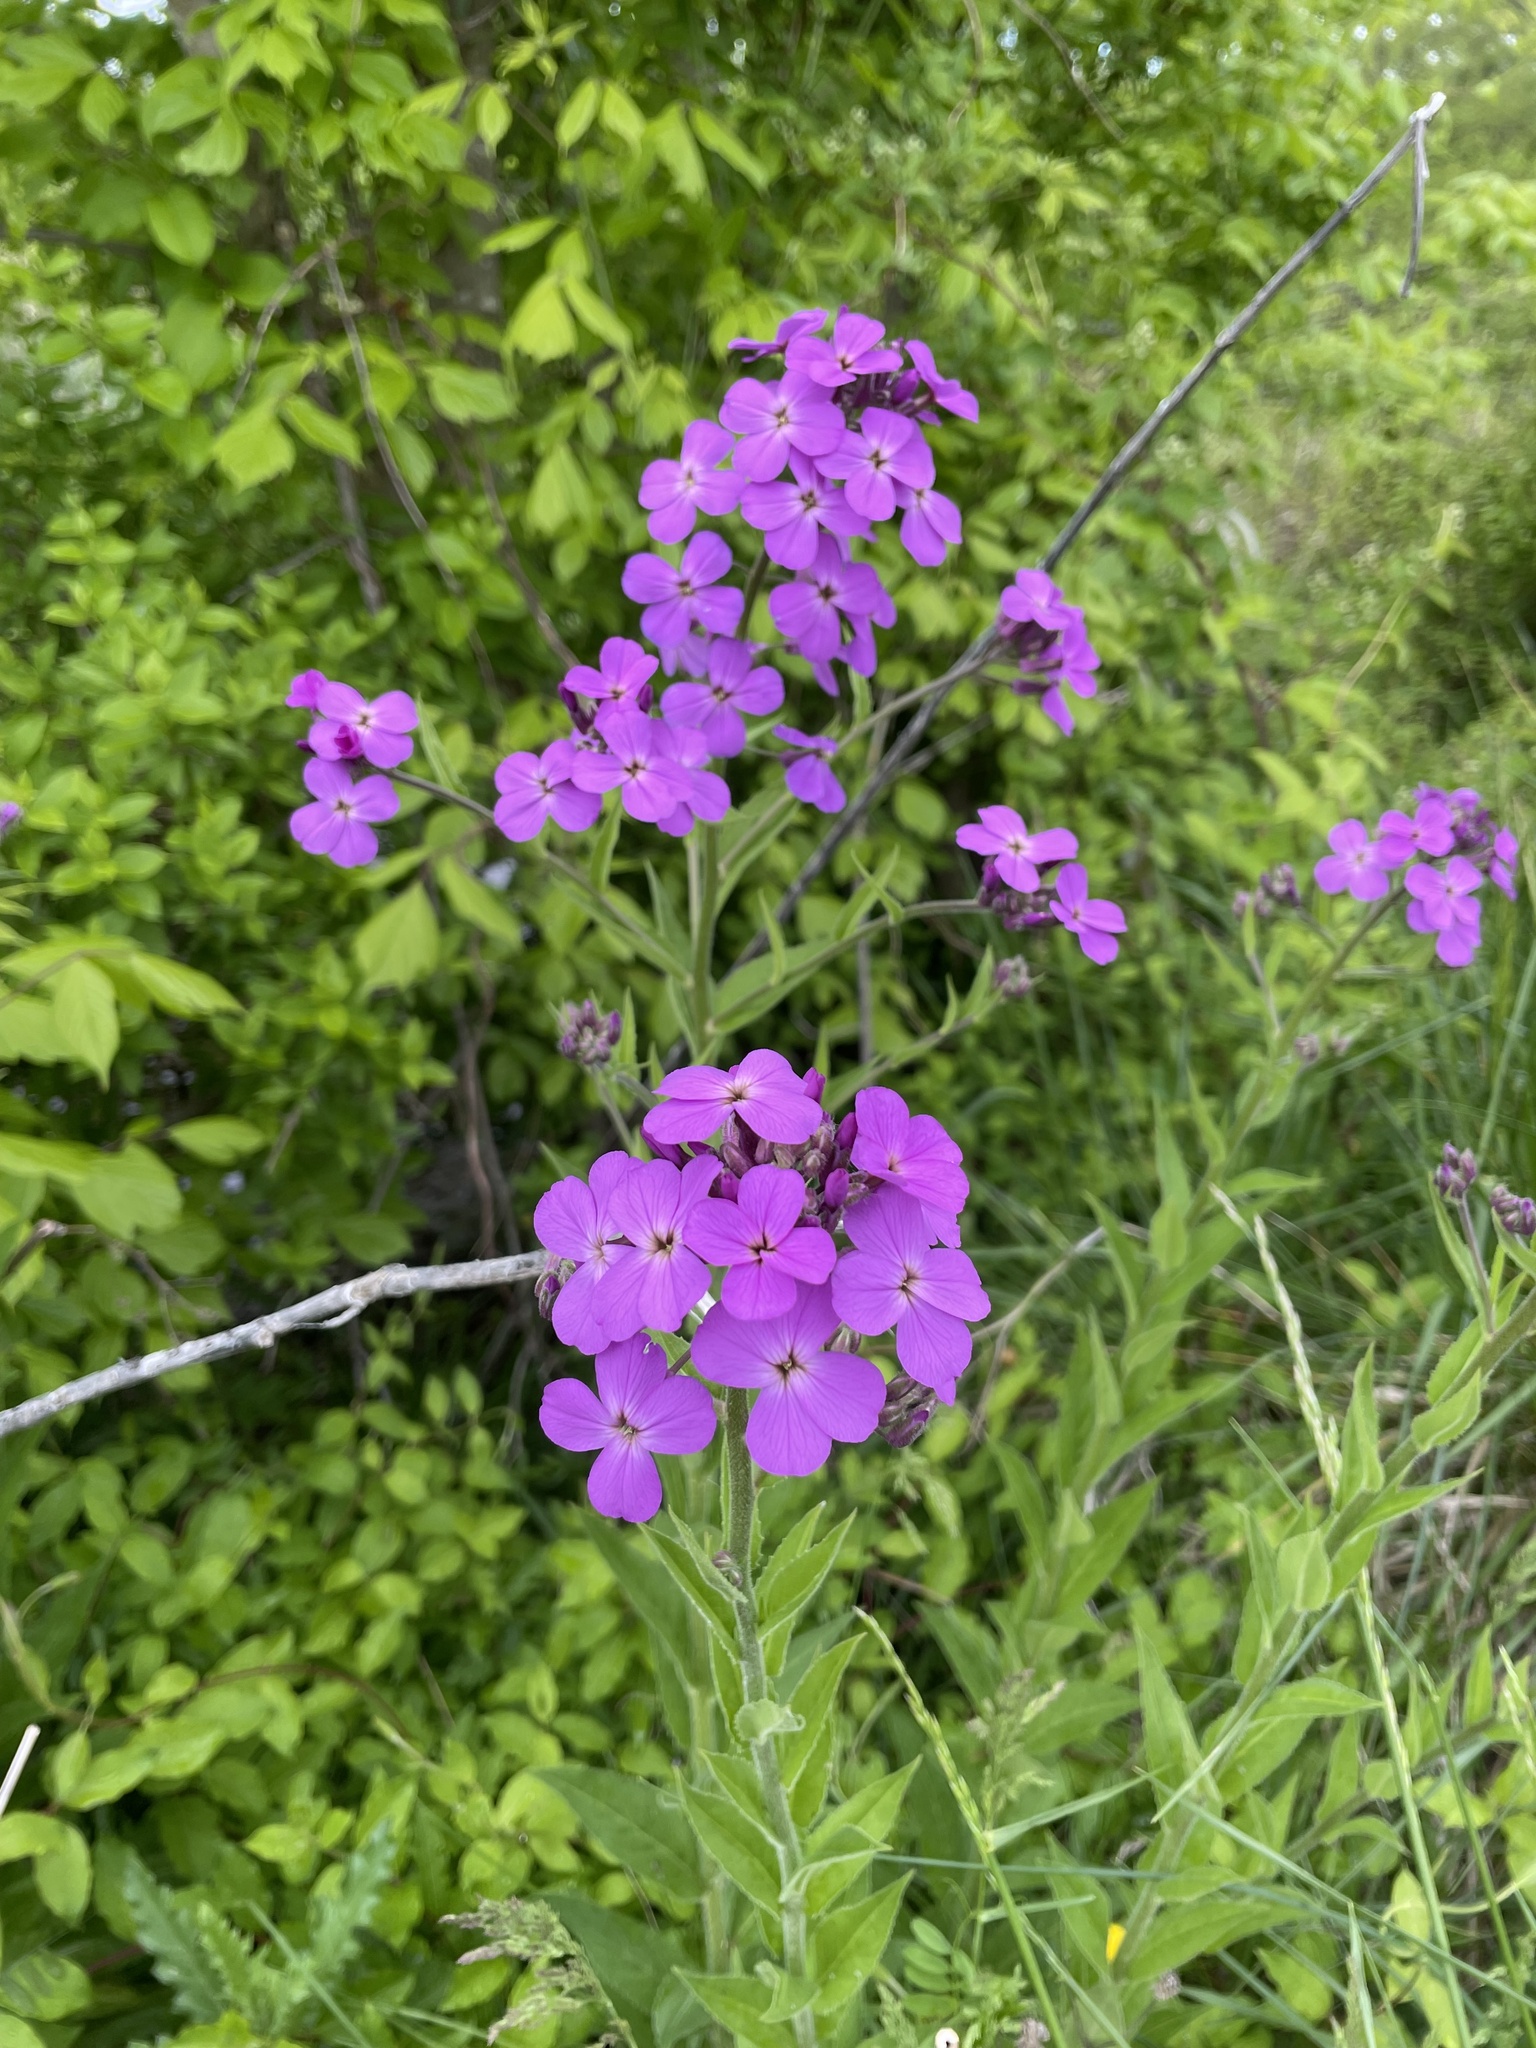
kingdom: Plantae
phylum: Tracheophyta
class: Magnoliopsida
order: Brassicales
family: Brassicaceae
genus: Hesperis
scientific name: Hesperis matronalis
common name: Dame's-violet
